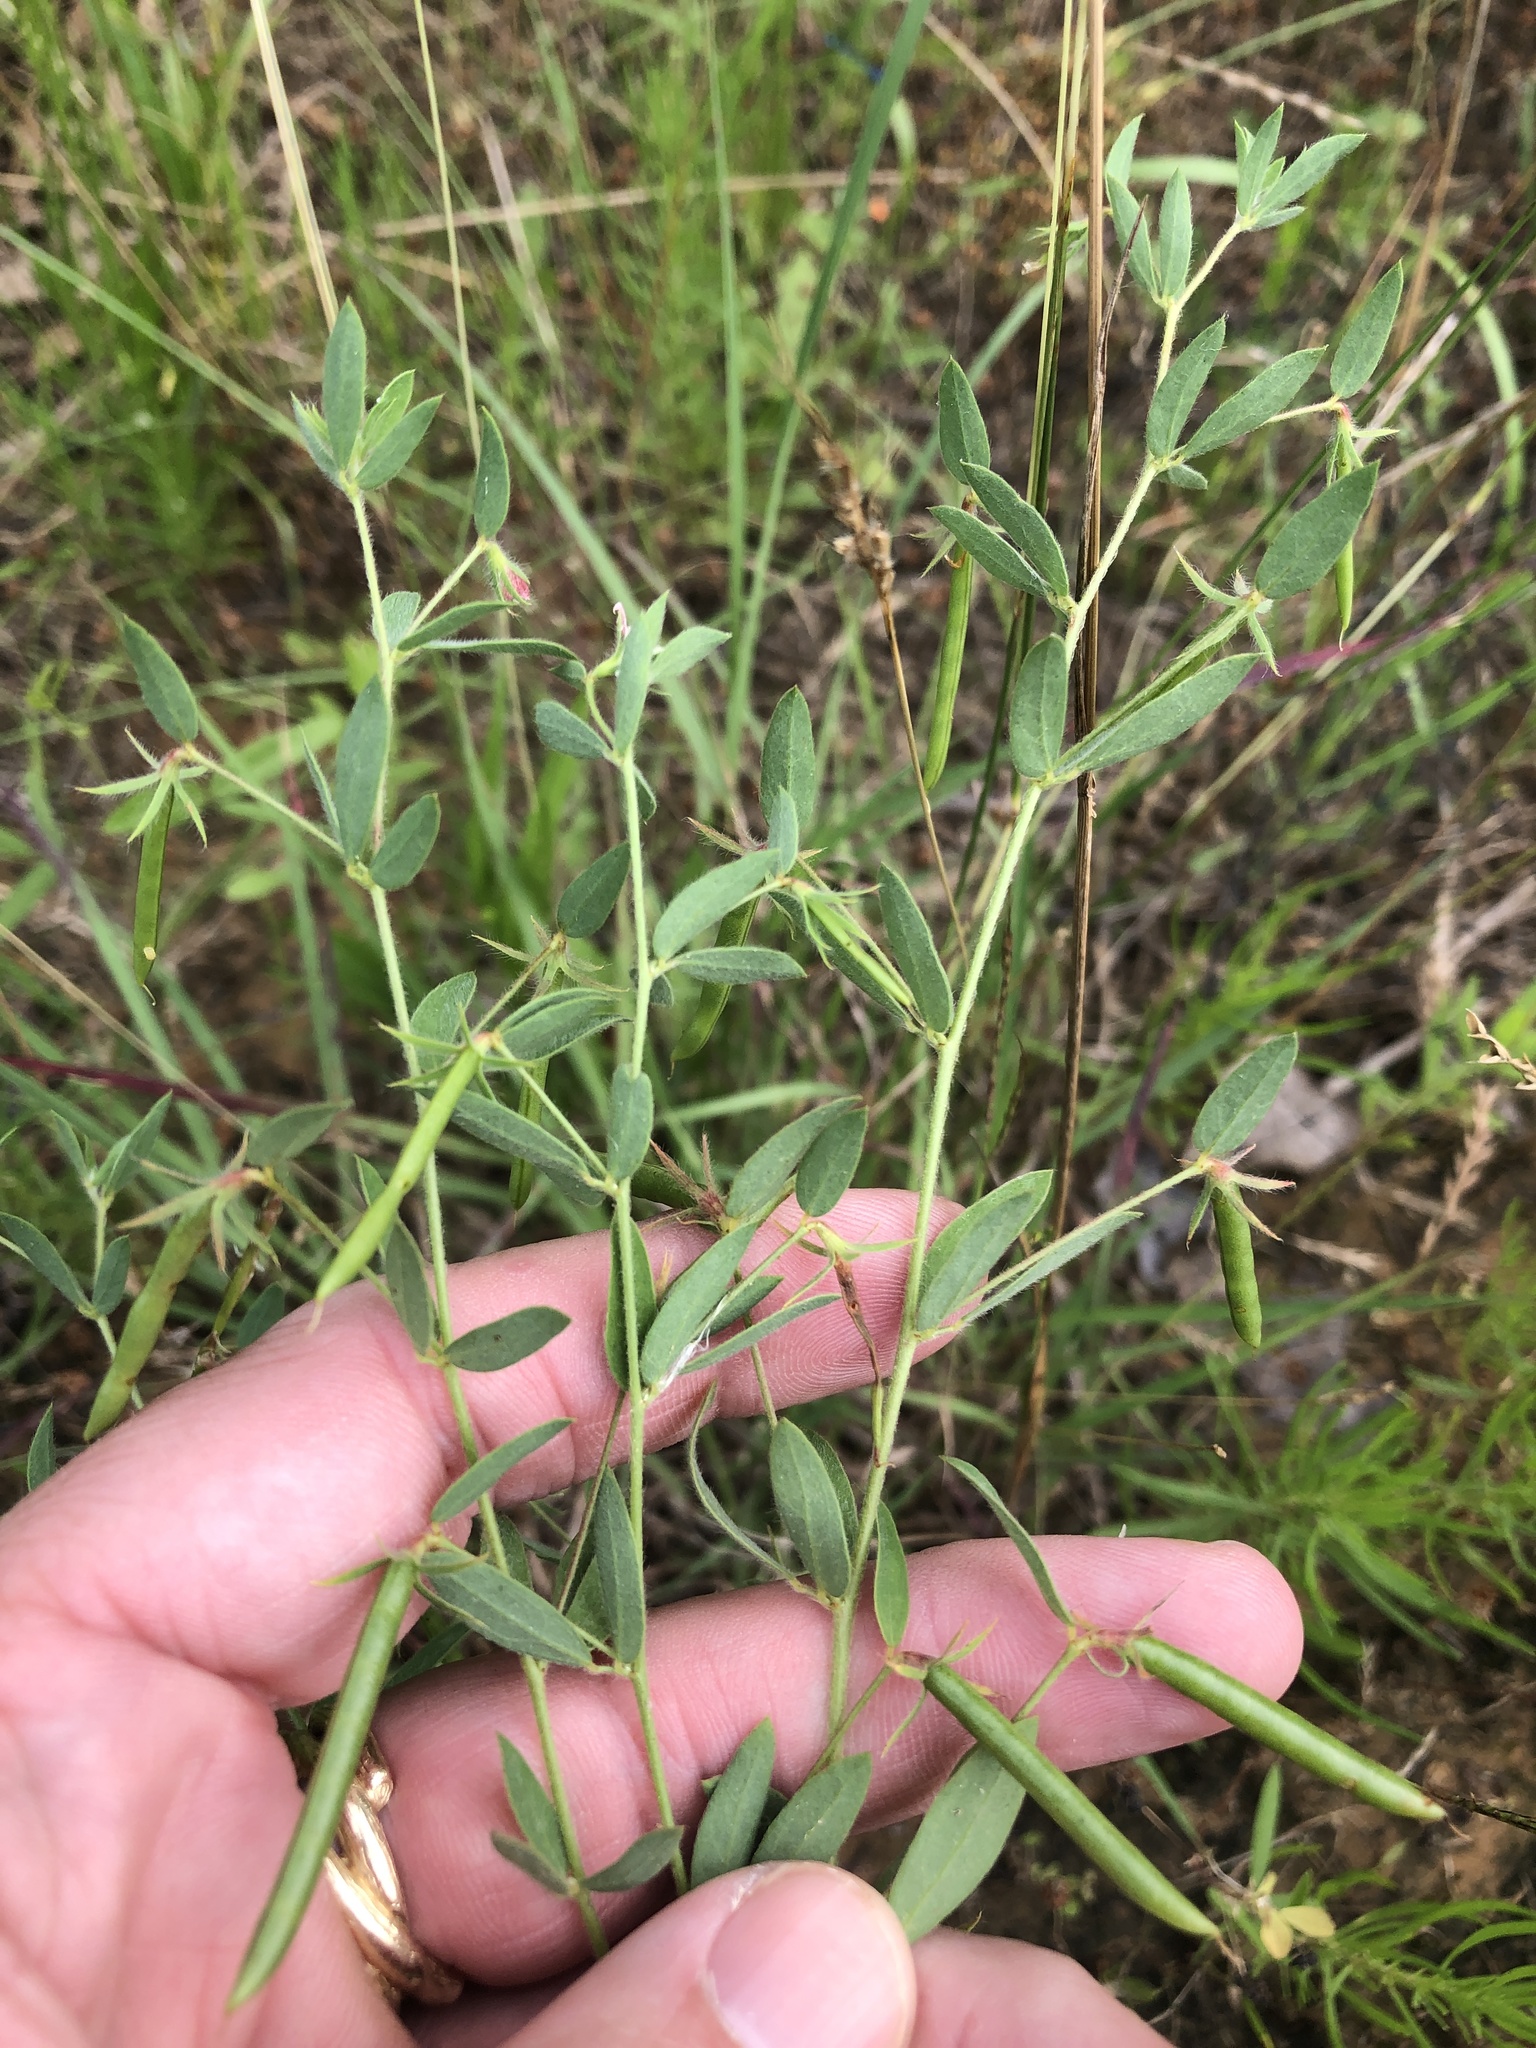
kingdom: Plantae
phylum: Tracheophyta
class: Magnoliopsida
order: Fabales
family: Fabaceae
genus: Acmispon
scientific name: Acmispon americanus
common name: American bird's-foot trefoil
